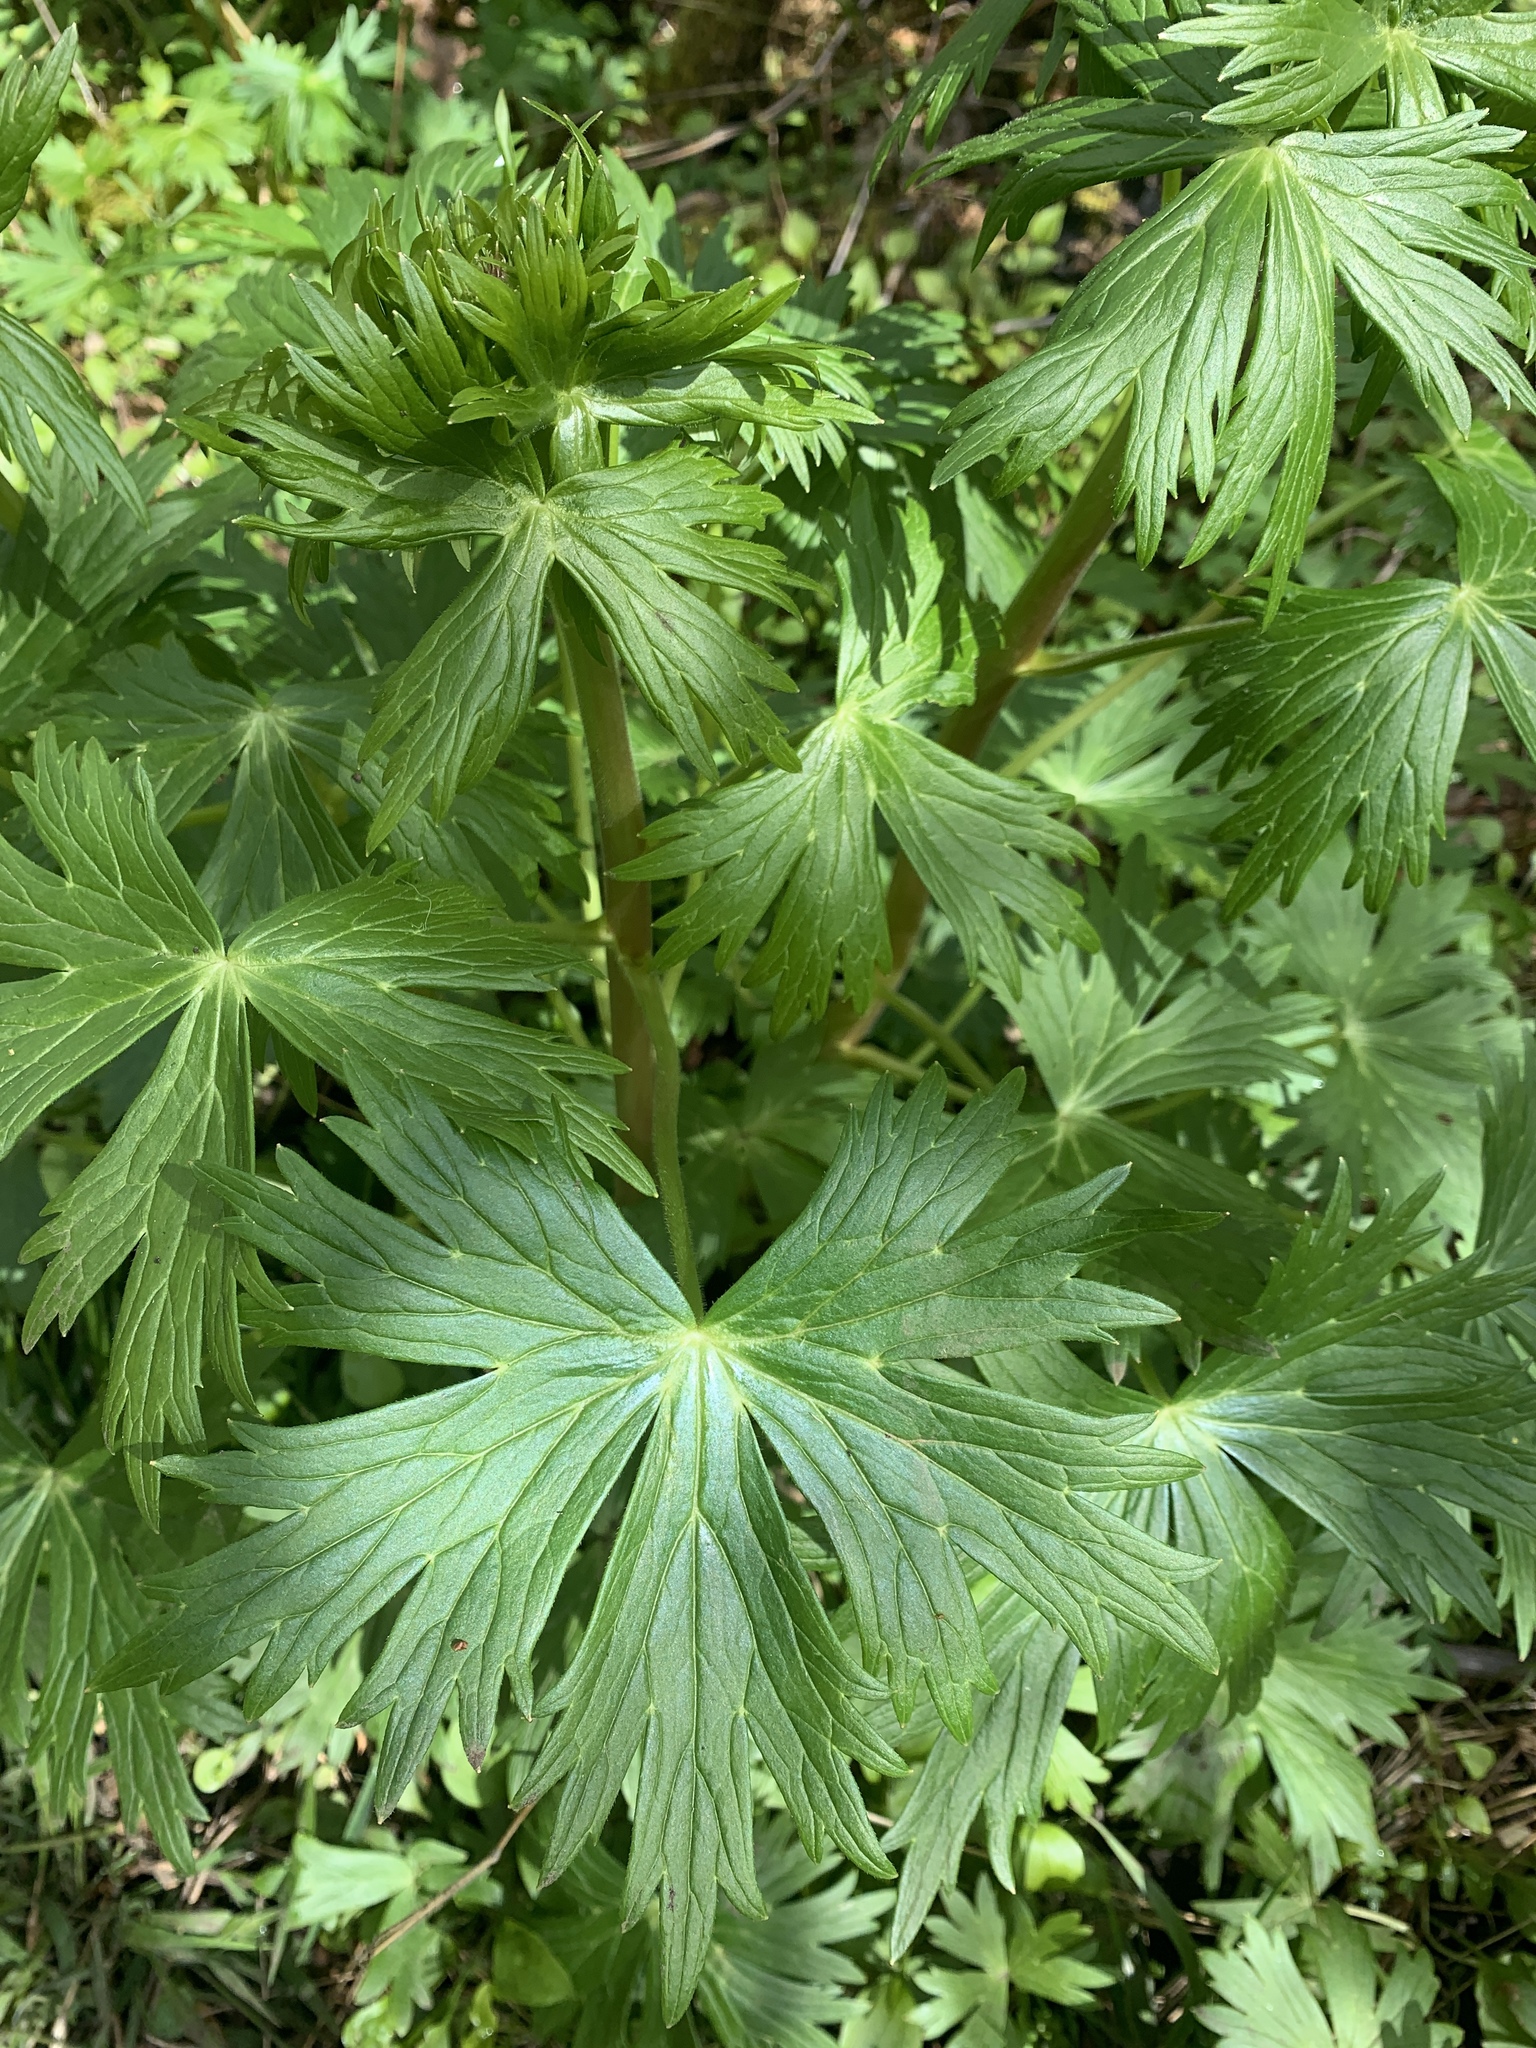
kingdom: Plantae
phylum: Tracheophyta
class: Magnoliopsida
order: Ranunculales
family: Ranunculaceae
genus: Delphinium
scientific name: Delphinium trolliifolium
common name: Cow-poison
